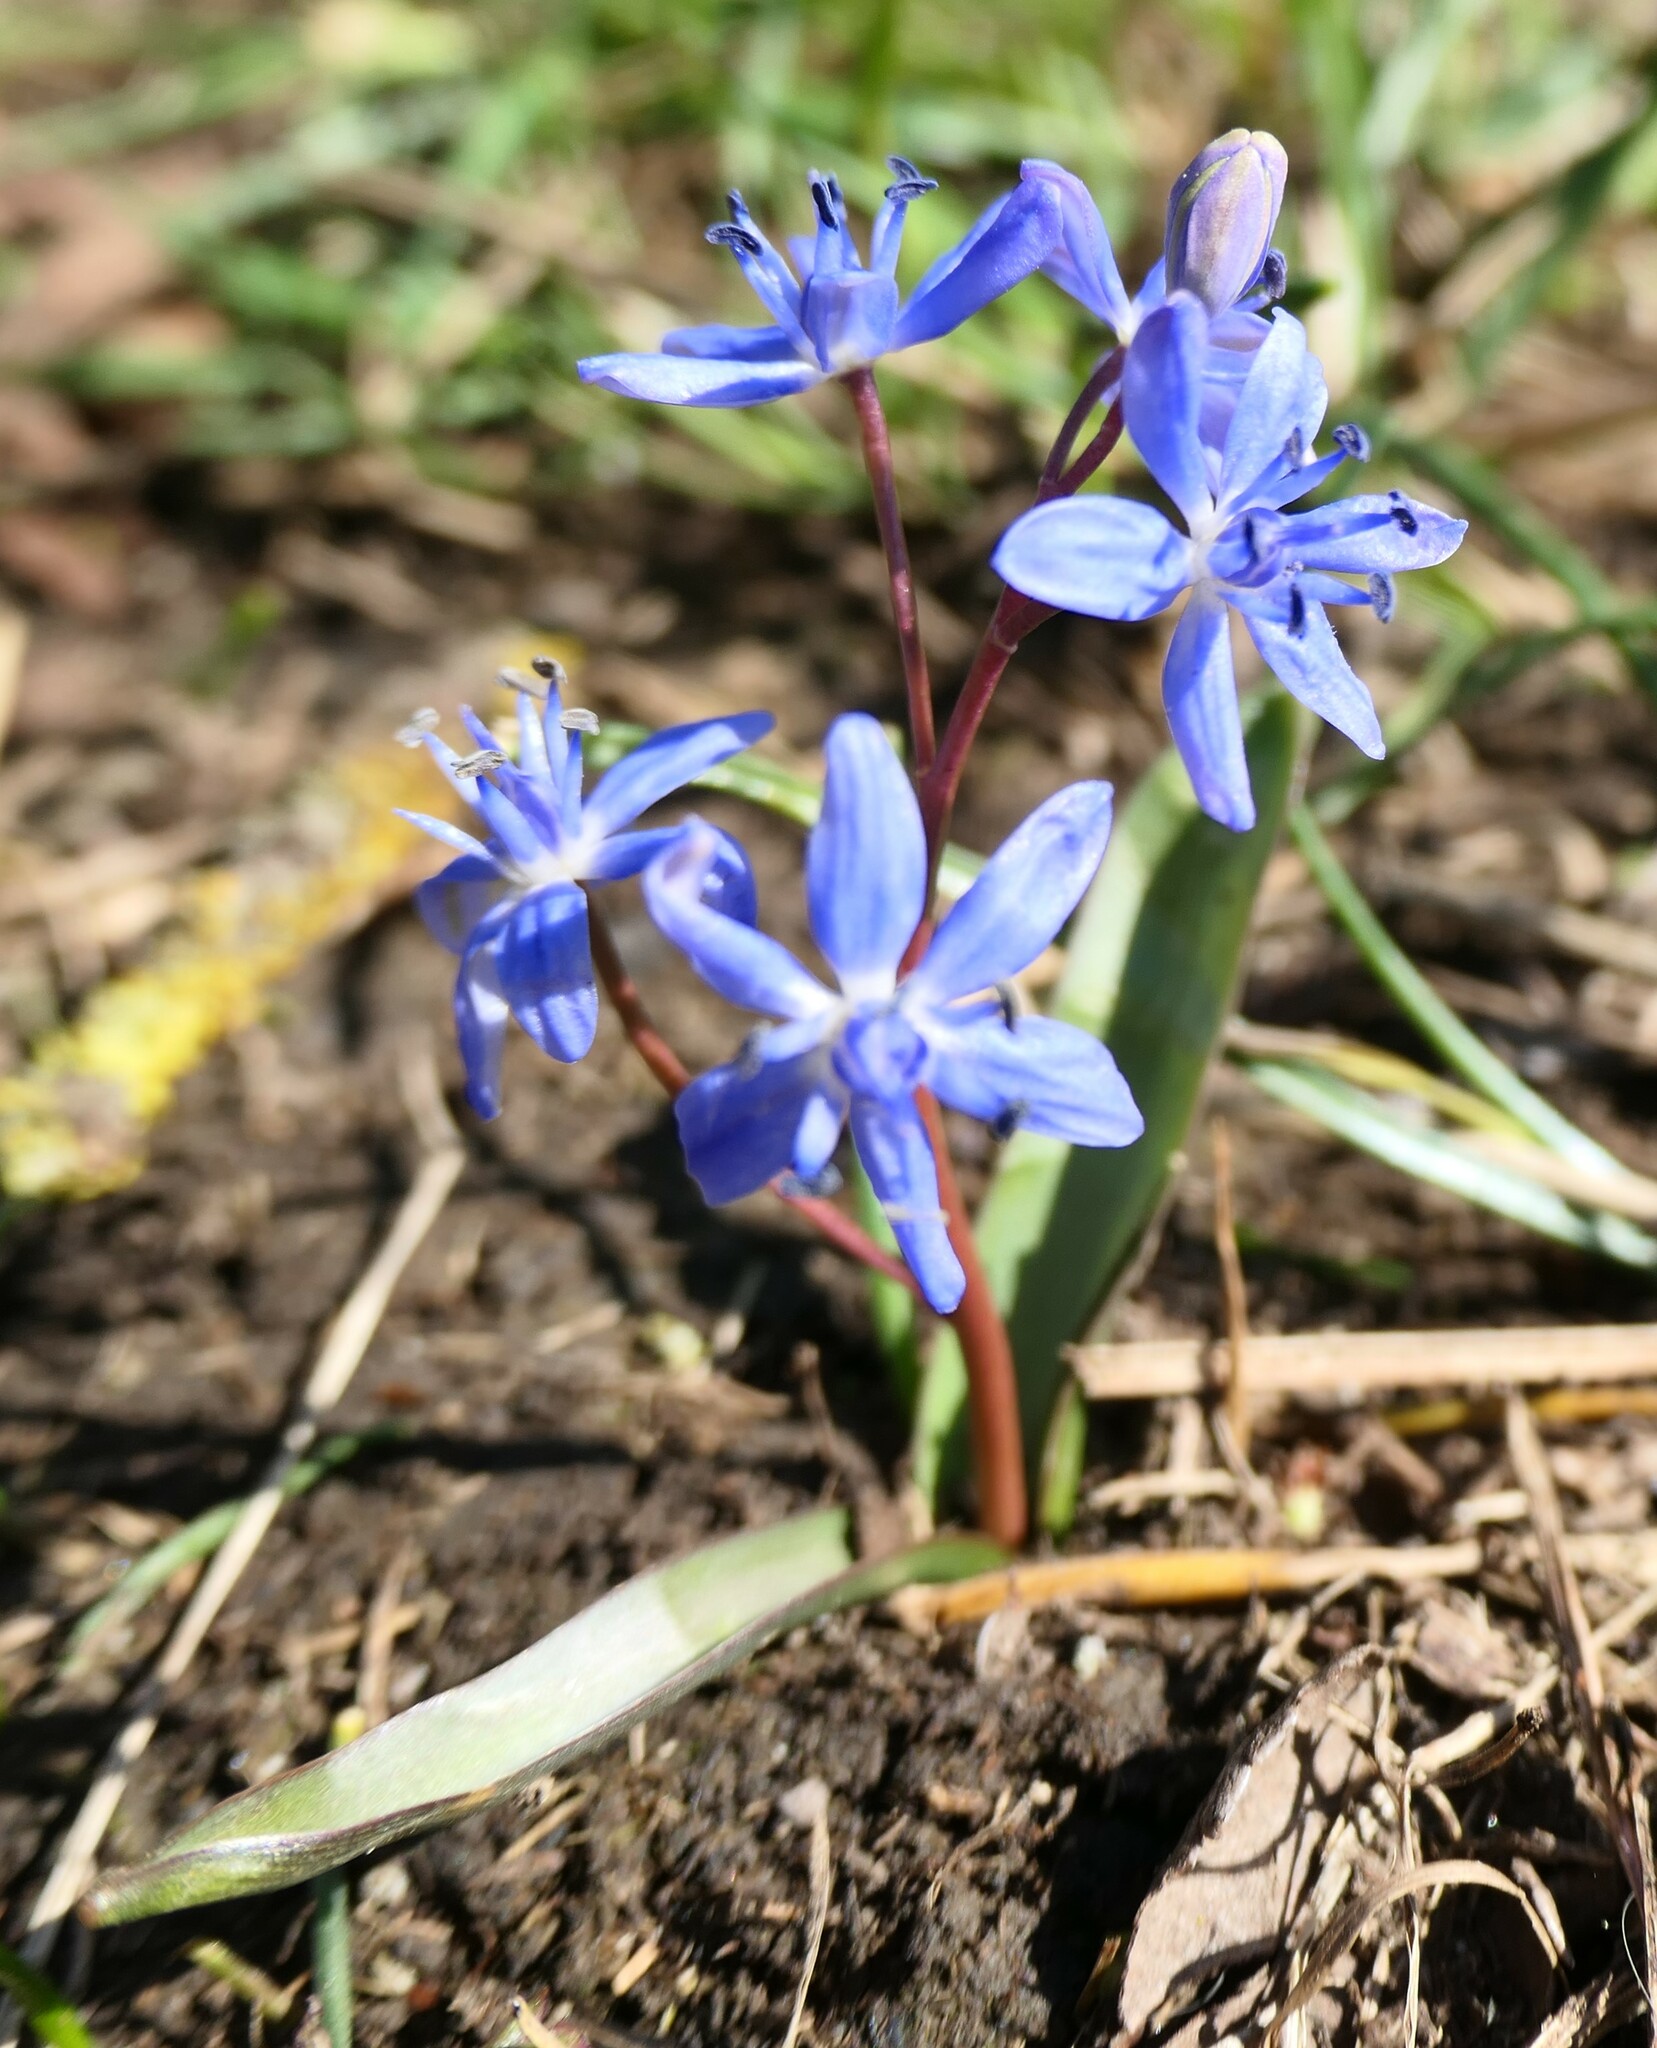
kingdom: Plantae
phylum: Tracheophyta
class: Liliopsida
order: Asparagales
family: Asparagaceae
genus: Scilla
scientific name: Scilla vindobonensis
